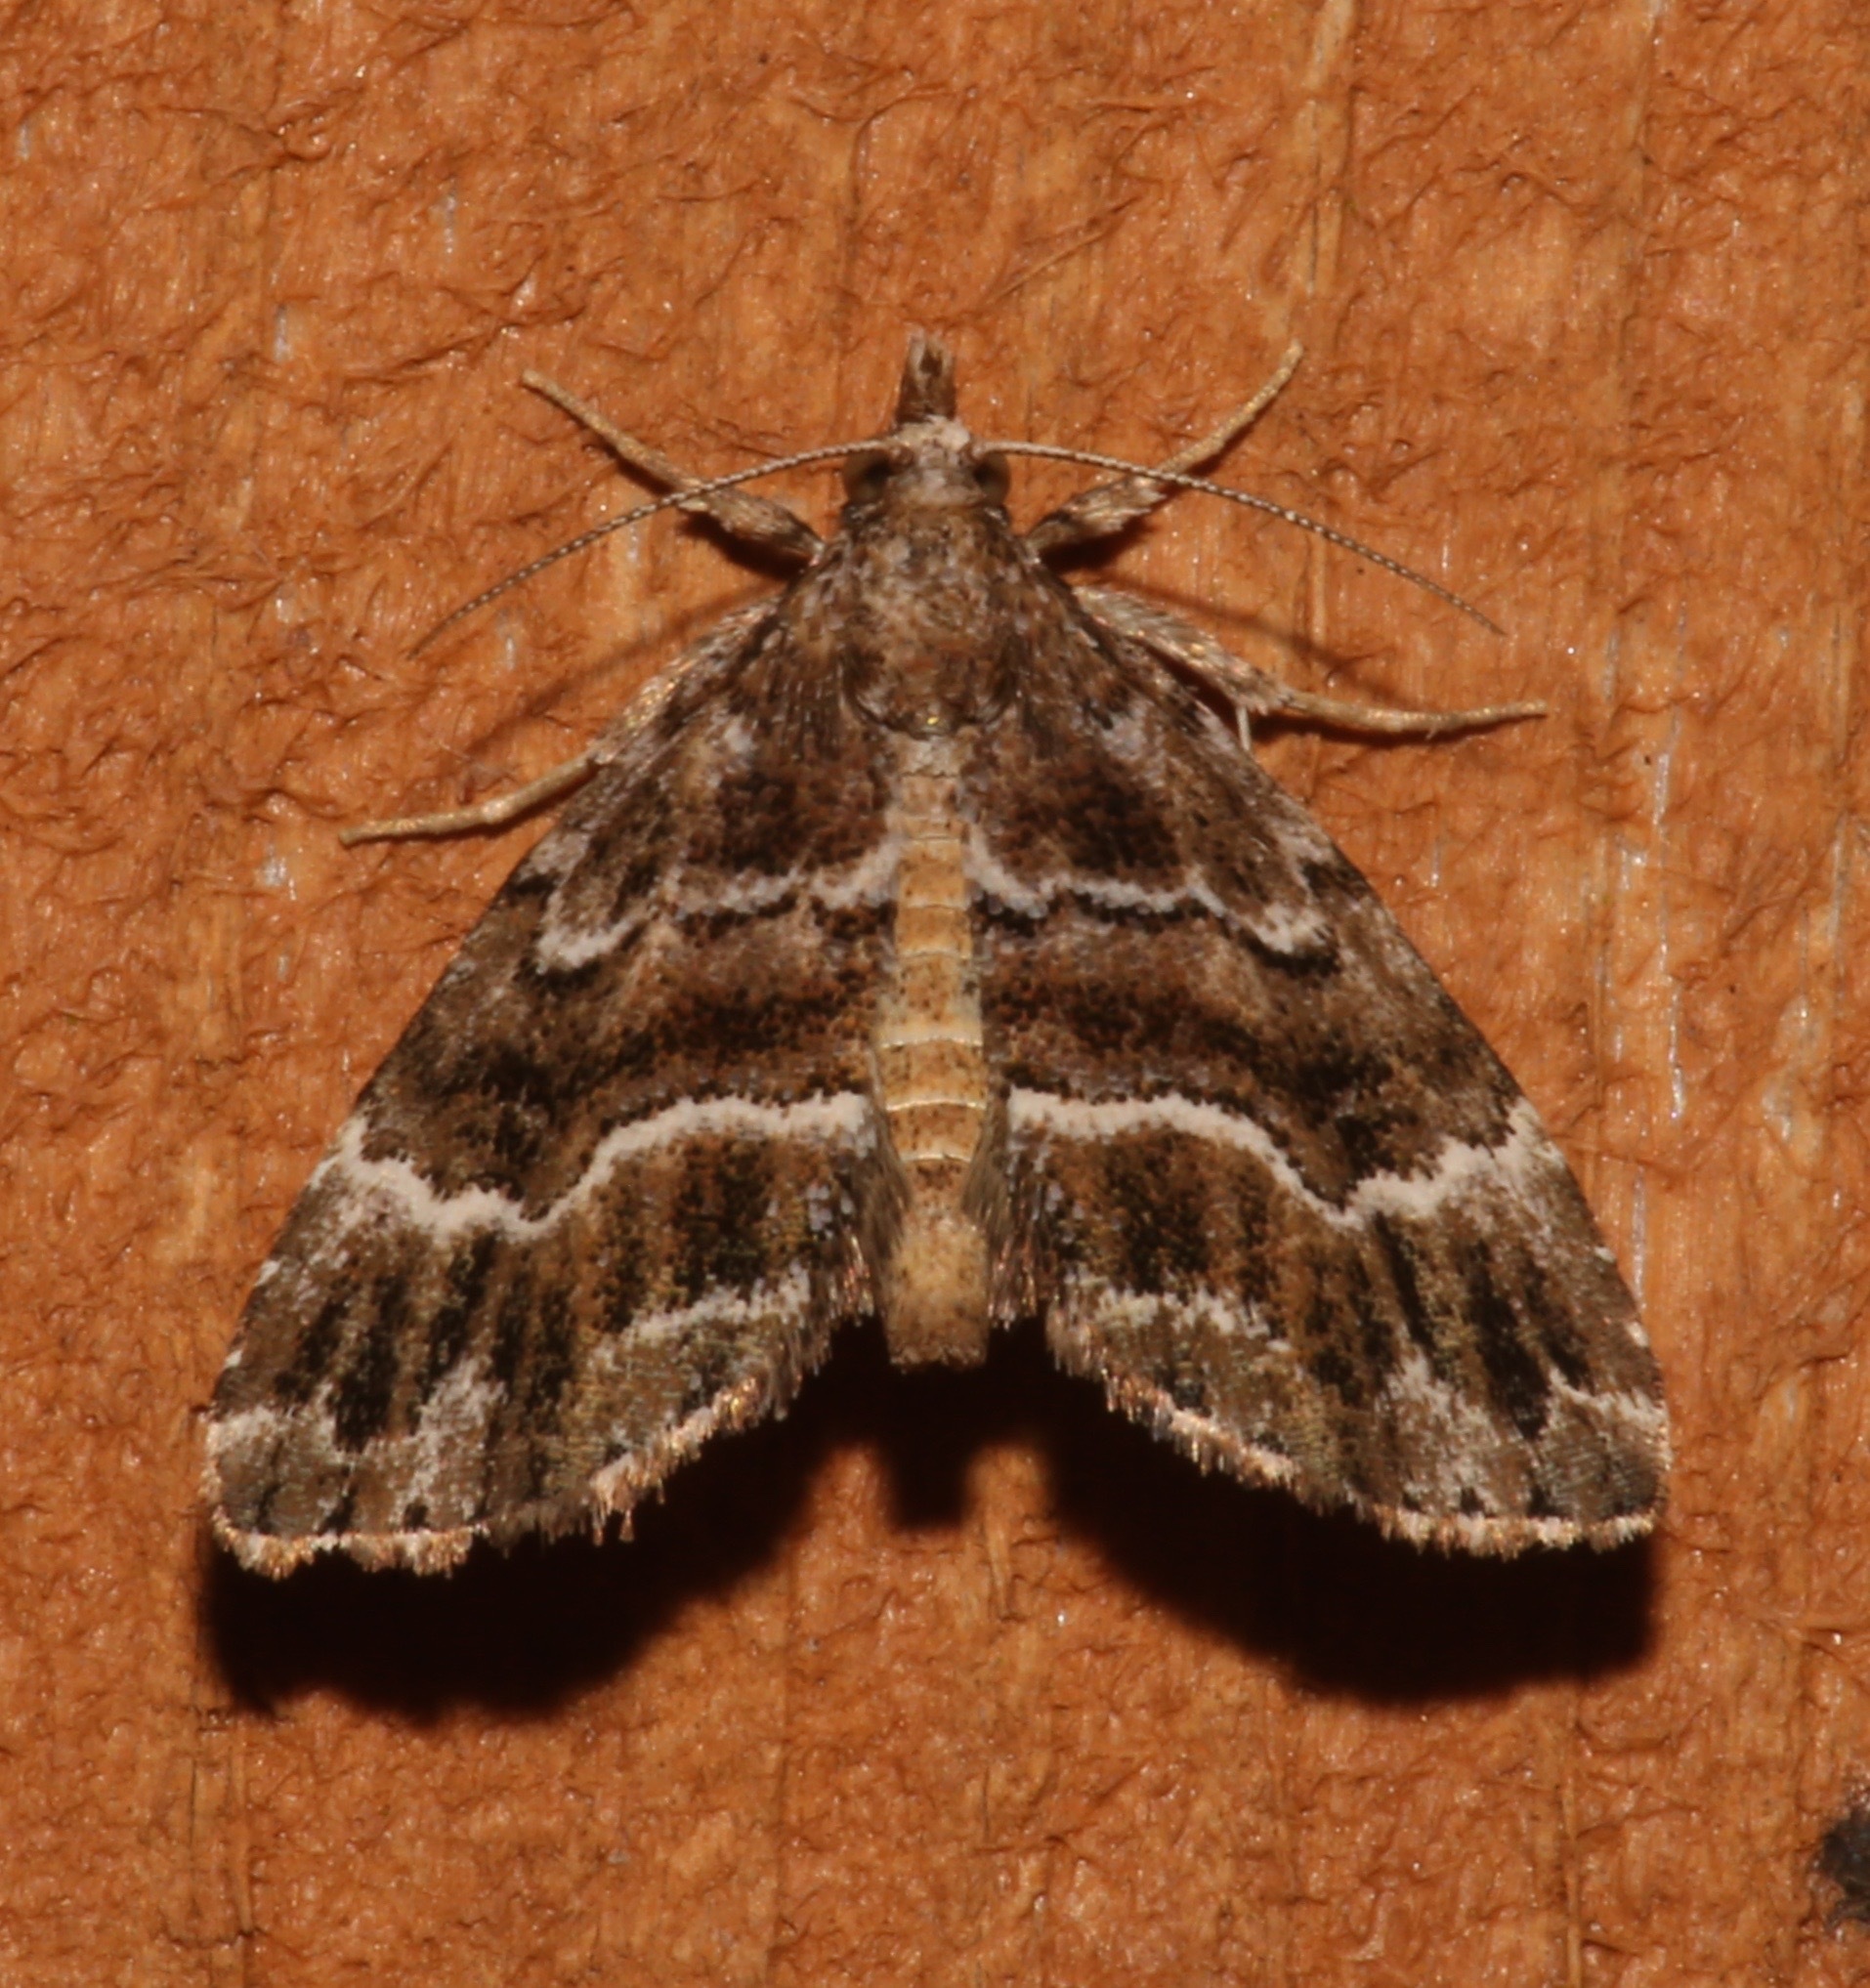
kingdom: Animalia
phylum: Arthropoda
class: Insecta
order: Lepidoptera
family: Erebidae
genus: Cutina
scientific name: Cutina arcuata
